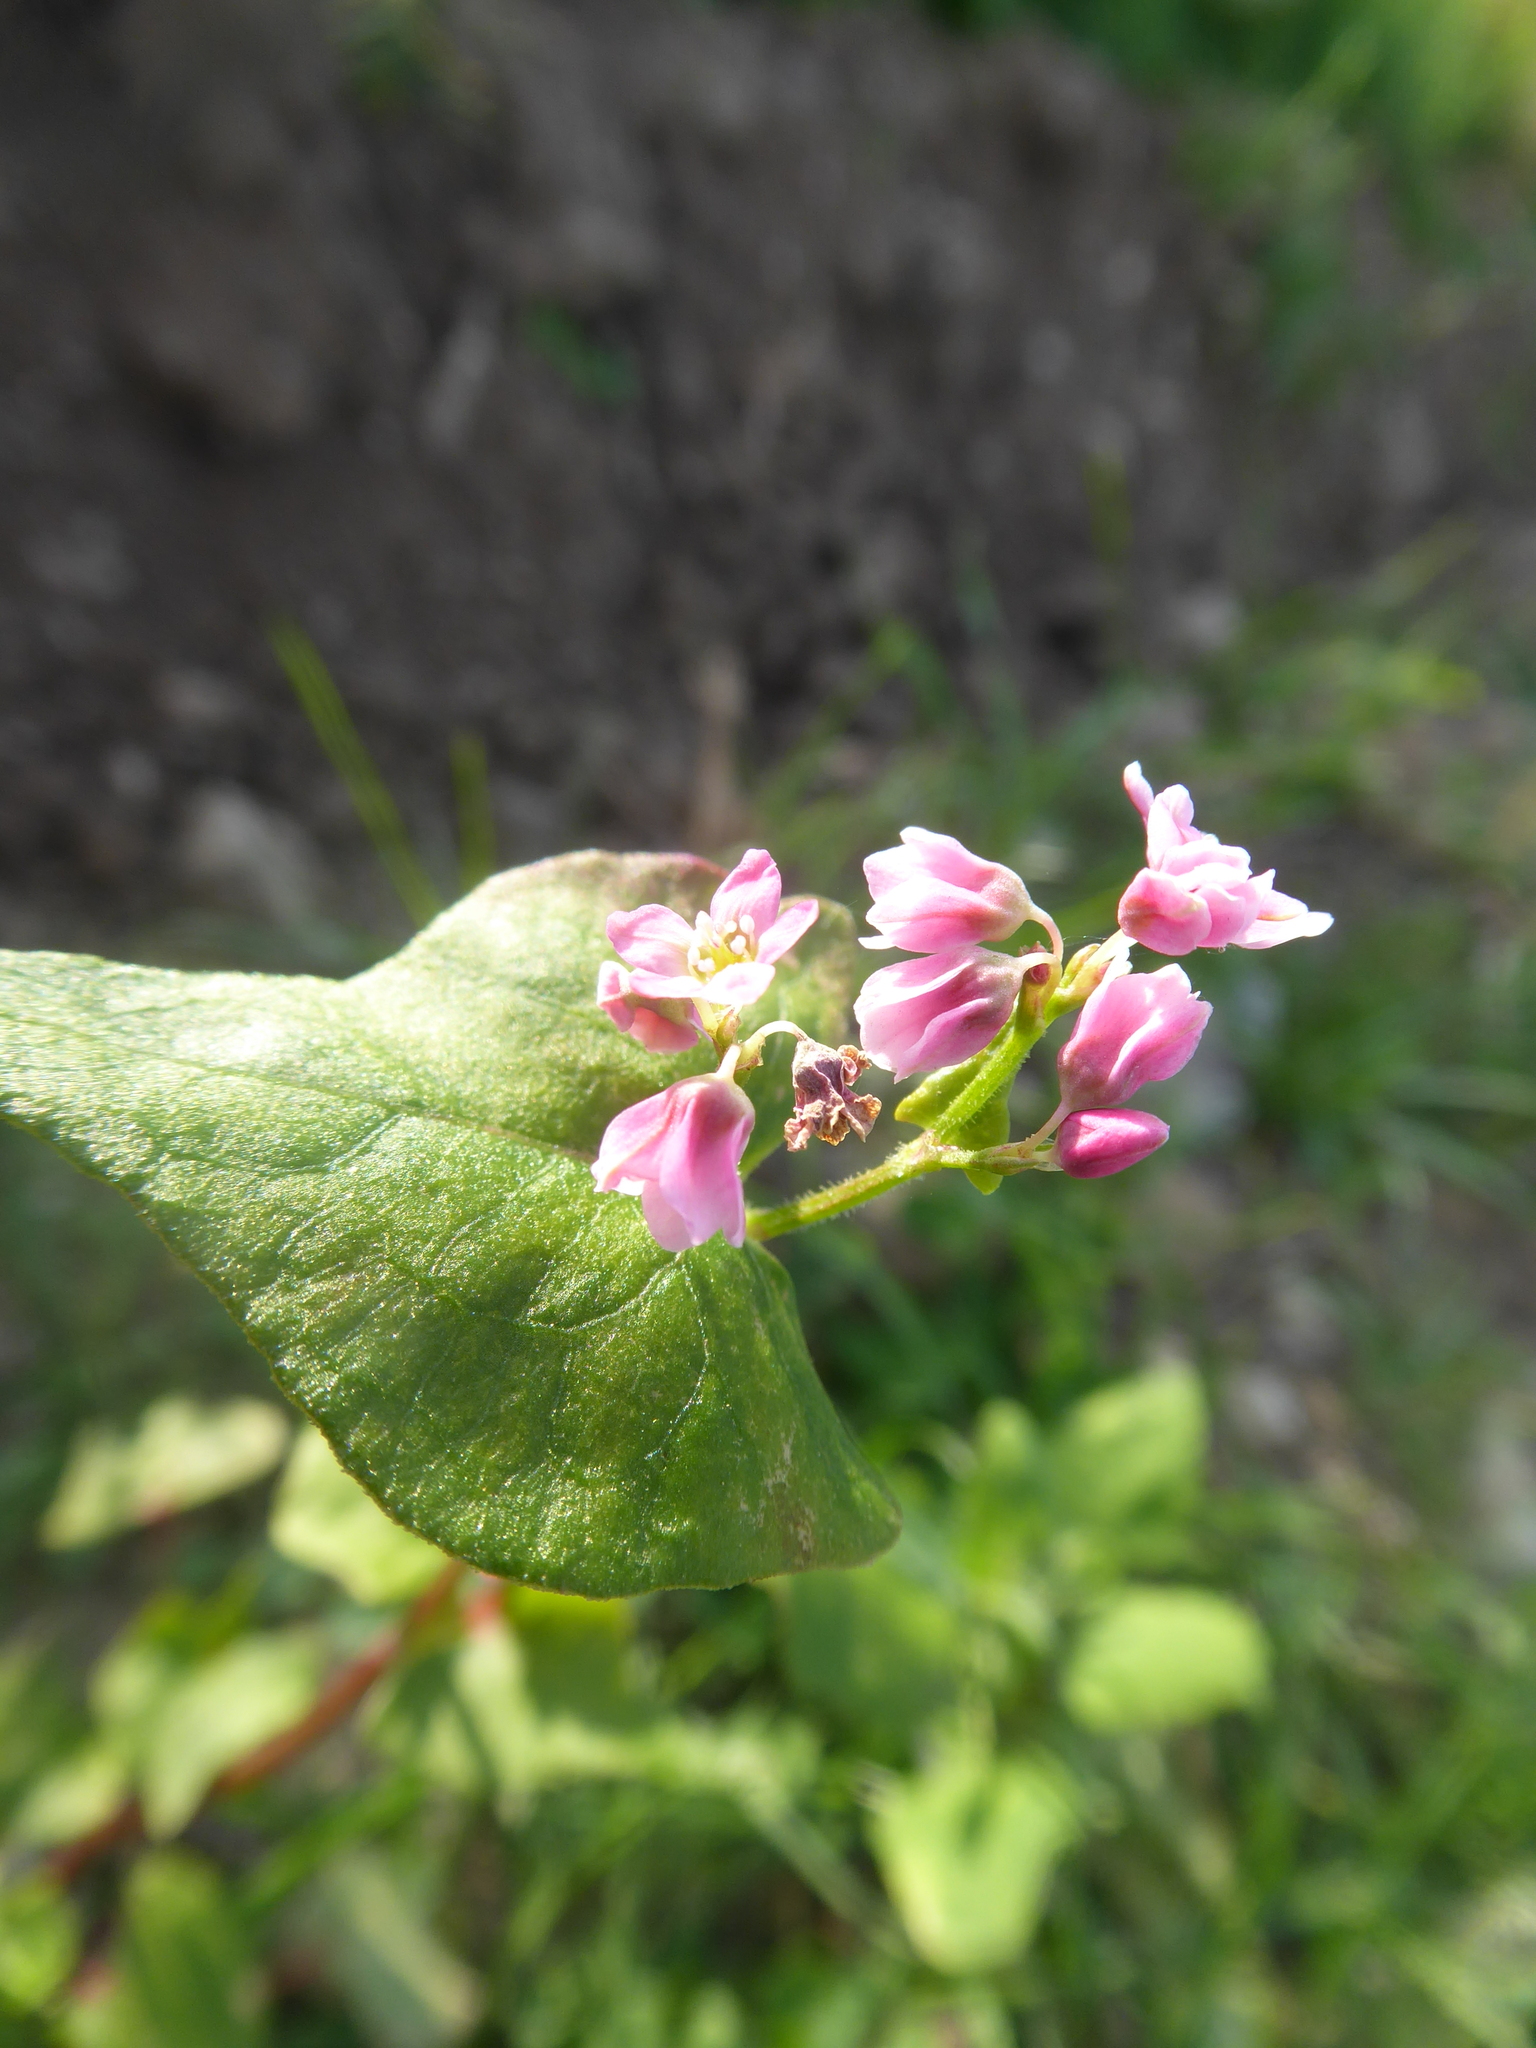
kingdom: Plantae
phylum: Tracheophyta
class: Magnoliopsida
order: Caryophyllales
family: Polygonaceae
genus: Fagopyrum
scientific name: Fagopyrum esculentum
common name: Buckwheat
